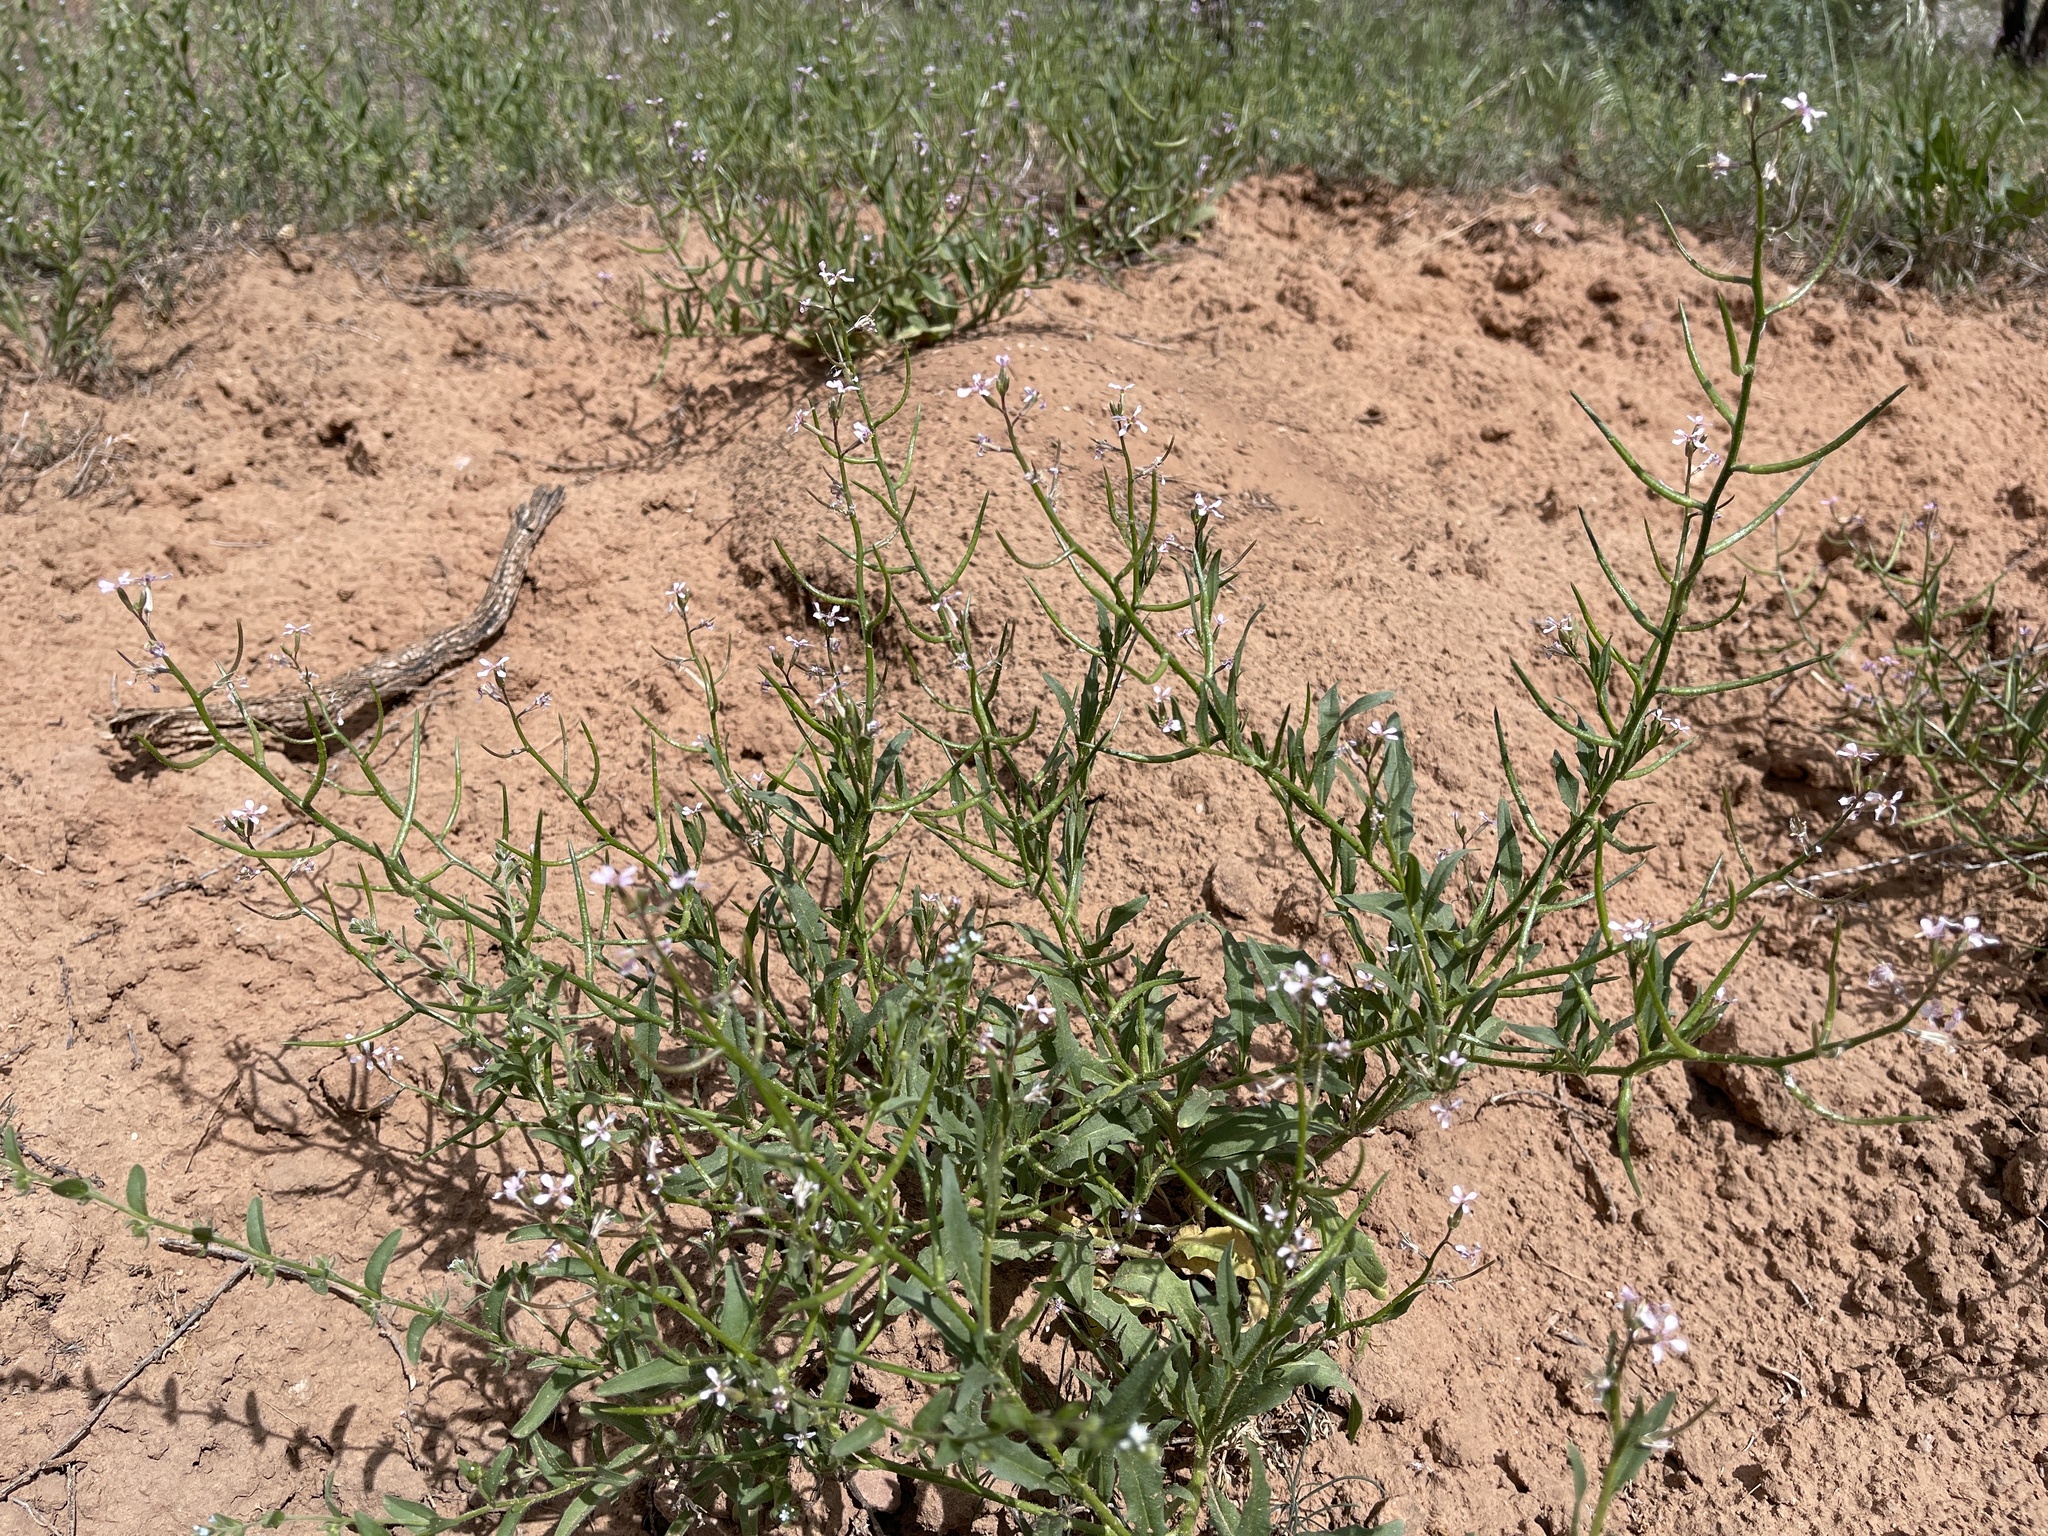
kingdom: Plantae
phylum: Tracheophyta
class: Magnoliopsida
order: Brassicales
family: Brassicaceae
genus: Chorispora
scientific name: Chorispora tenella
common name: Crossflower
